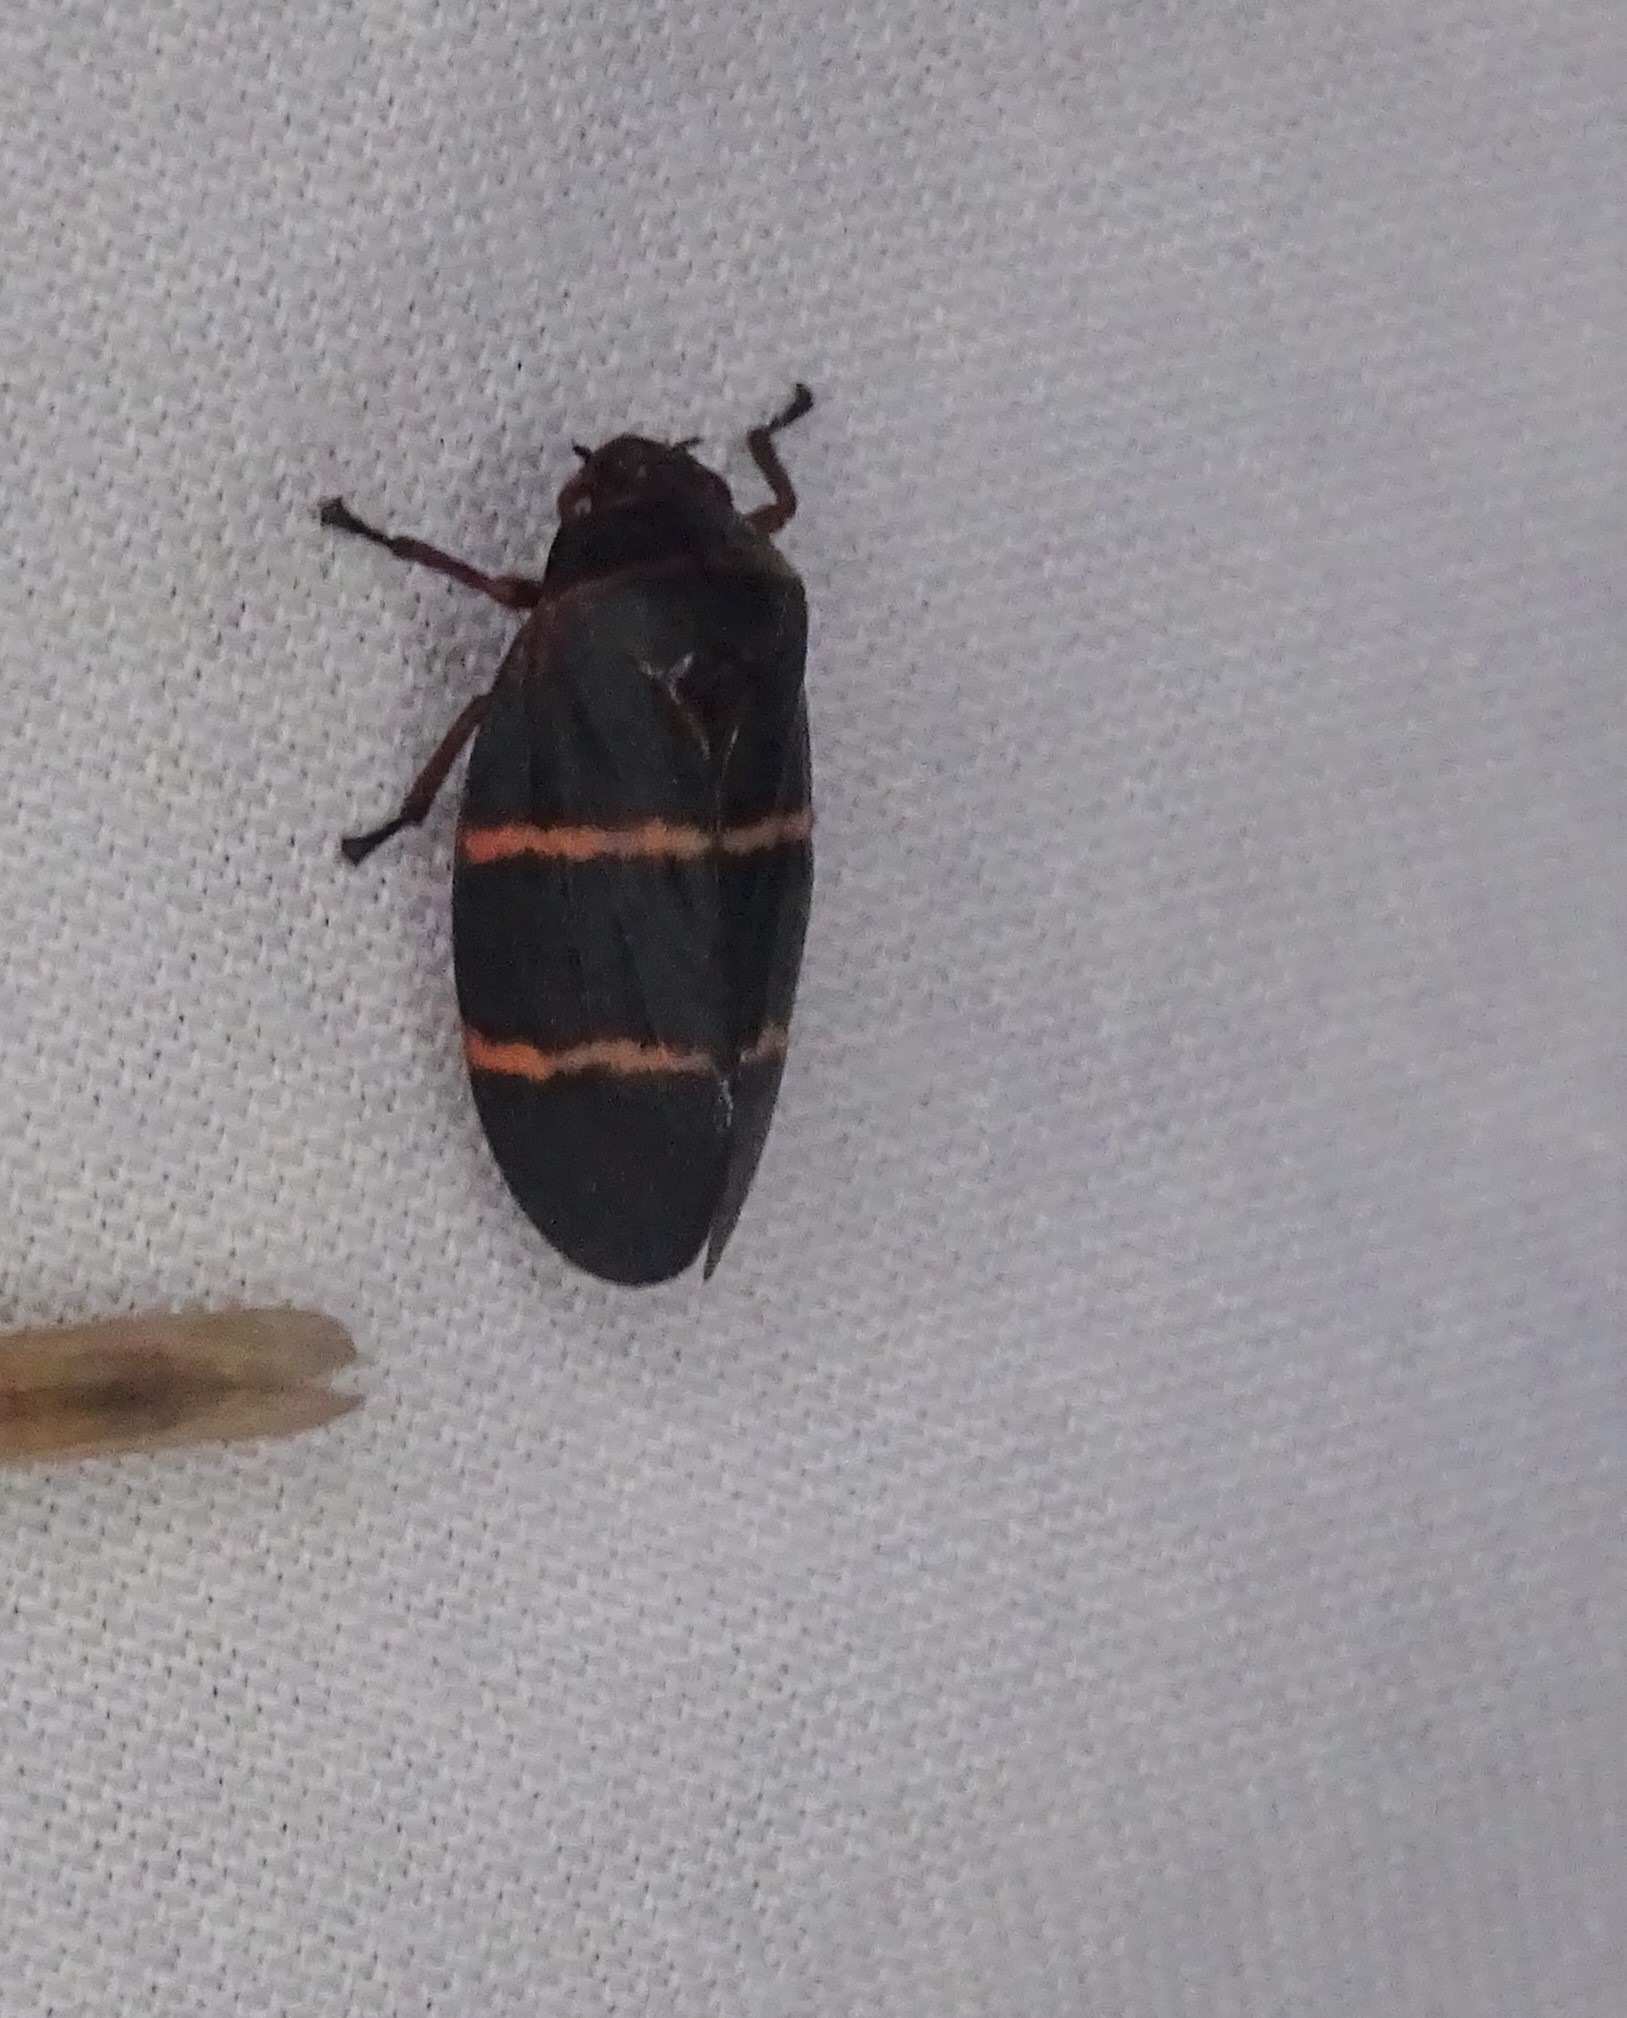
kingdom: Animalia
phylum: Arthropoda
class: Insecta
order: Hemiptera
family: Cercopidae
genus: Prosapia
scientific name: Prosapia bicincta
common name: Twolined spittlebug
